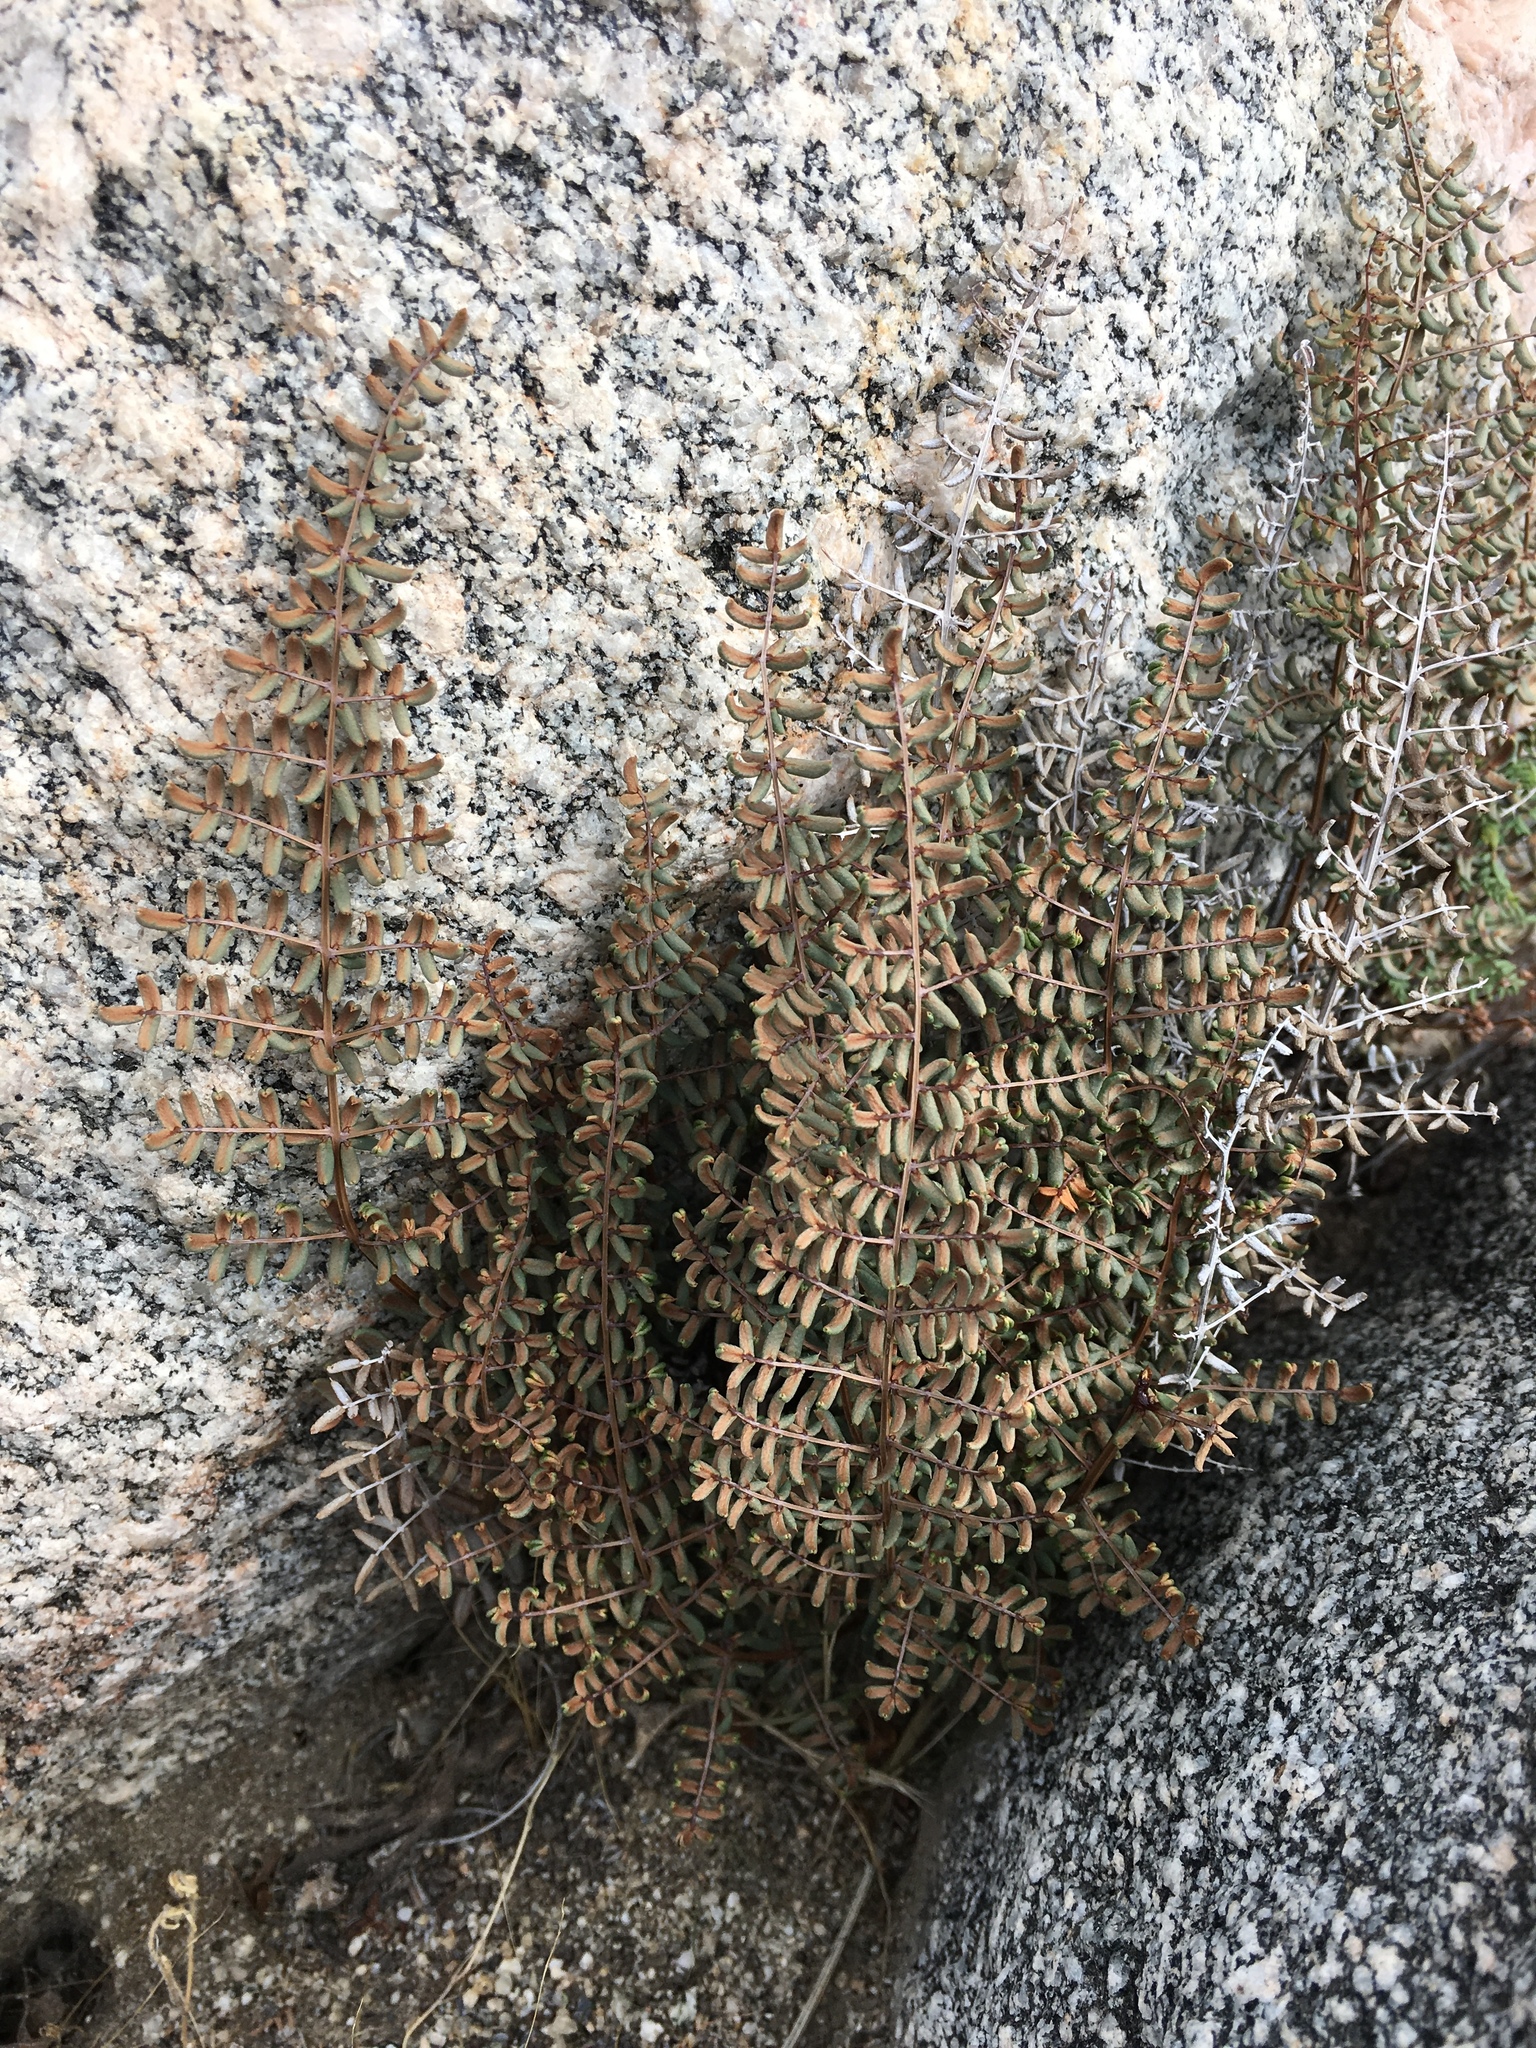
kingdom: Plantae
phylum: Tracheophyta
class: Polypodiopsida
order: Polypodiales
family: Pteridaceae
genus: Pellaea
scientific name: Pellaea mucronata
